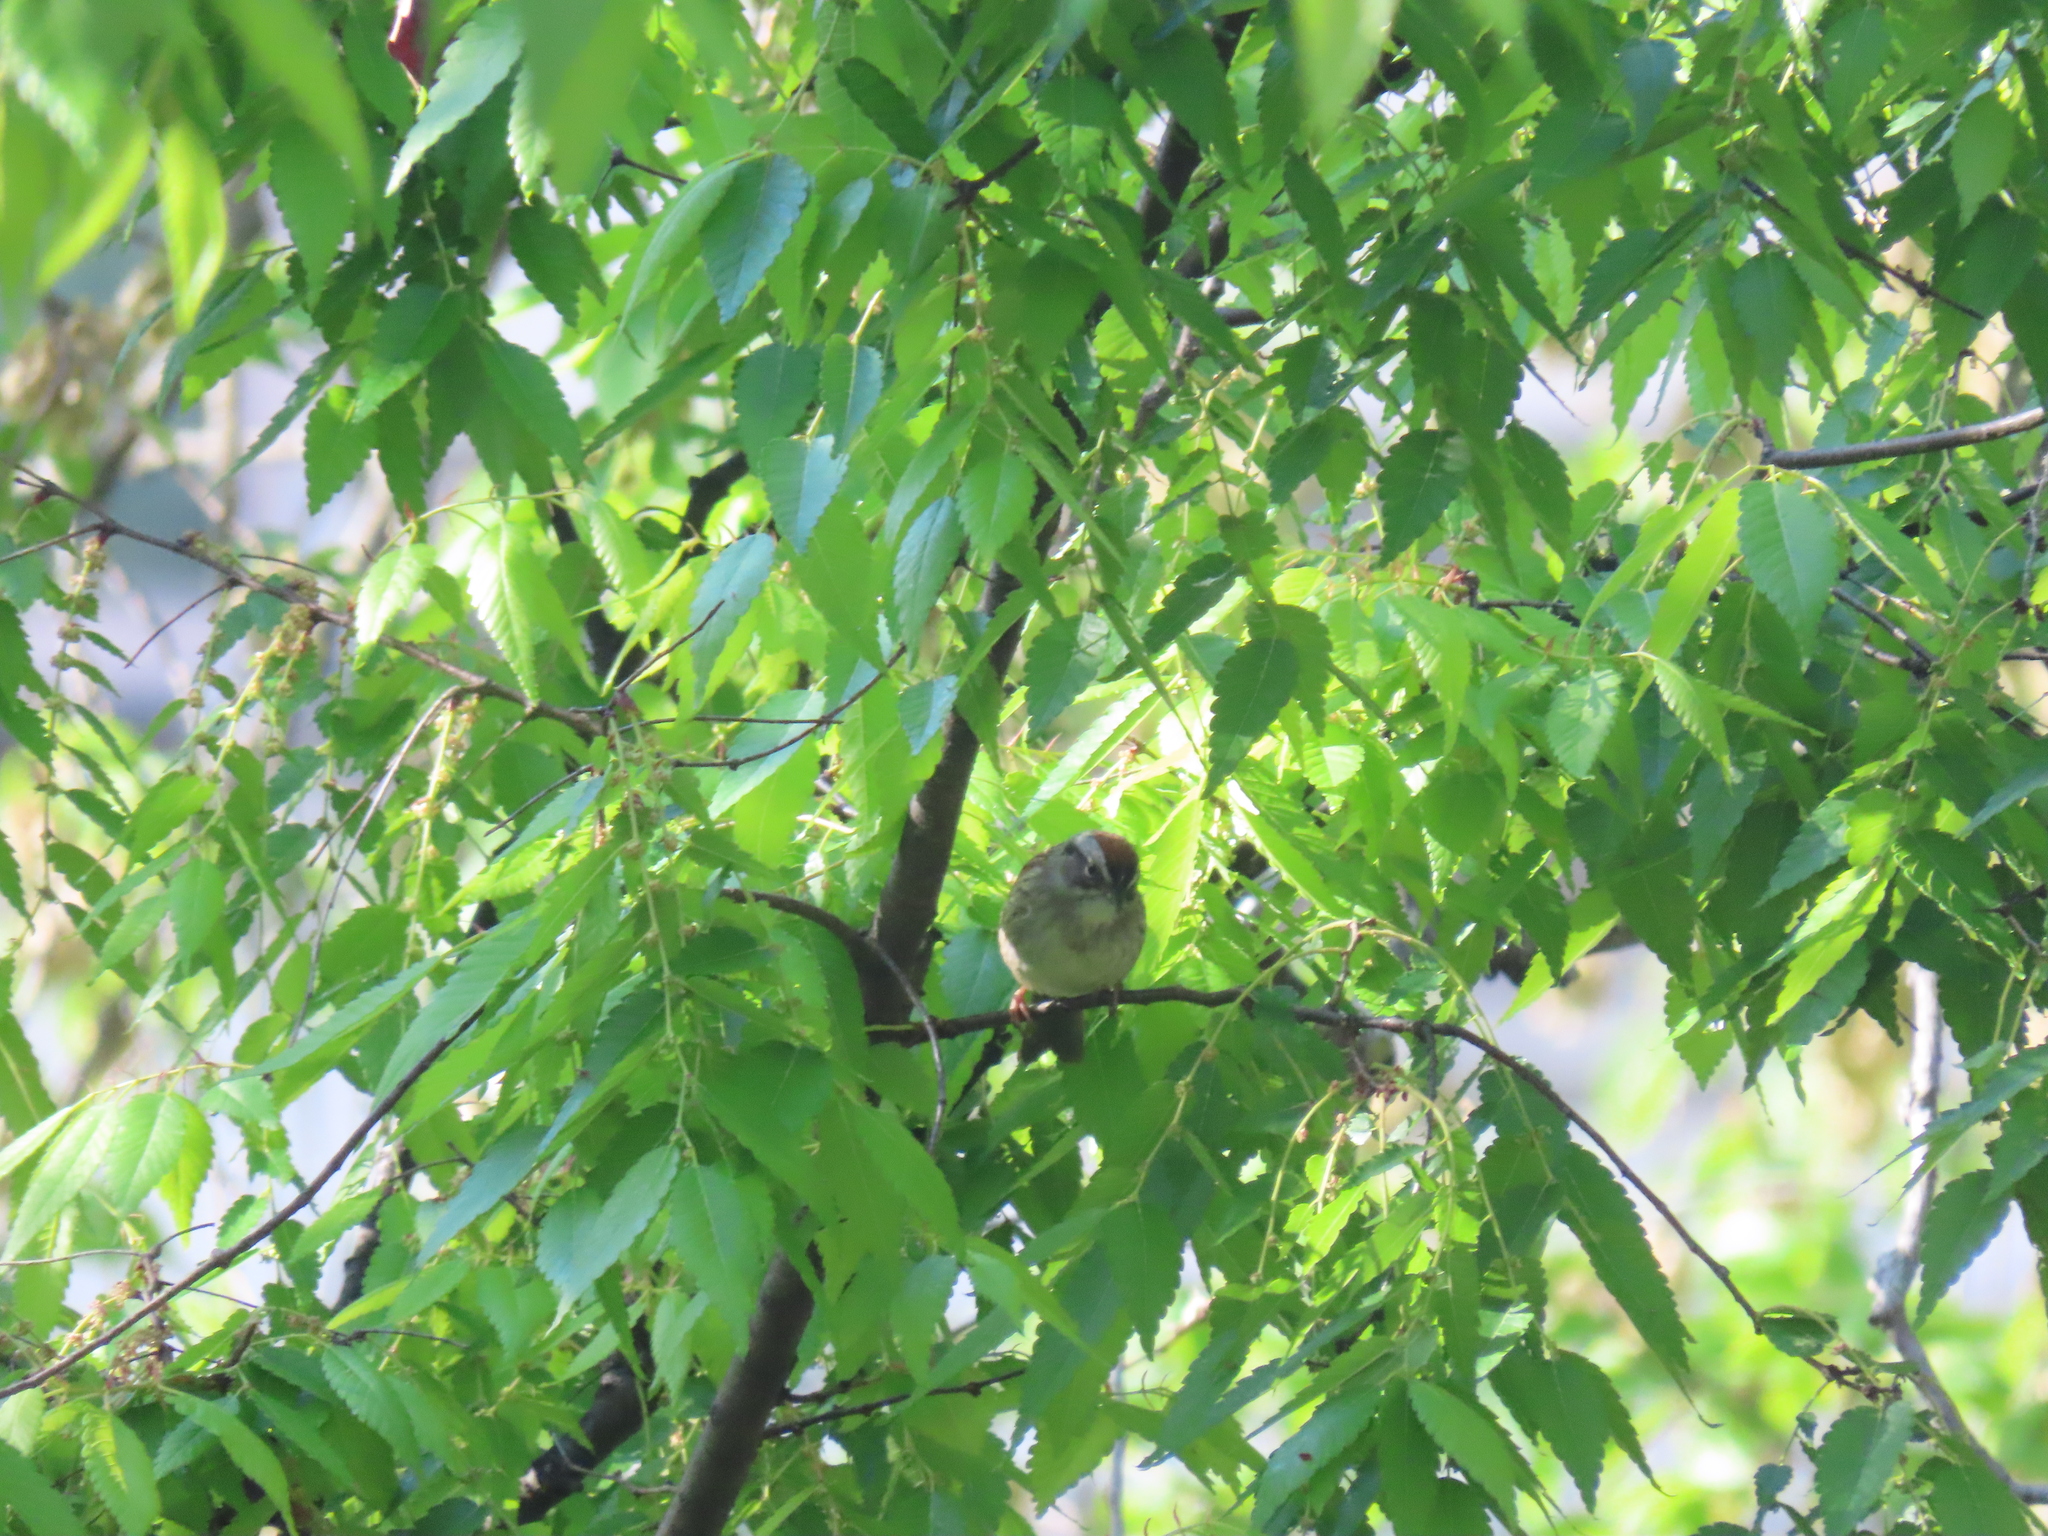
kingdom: Animalia
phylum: Chordata
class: Aves
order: Passeriformes
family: Passerellidae
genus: Spizella
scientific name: Spizella passerina
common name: Chipping sparrow
